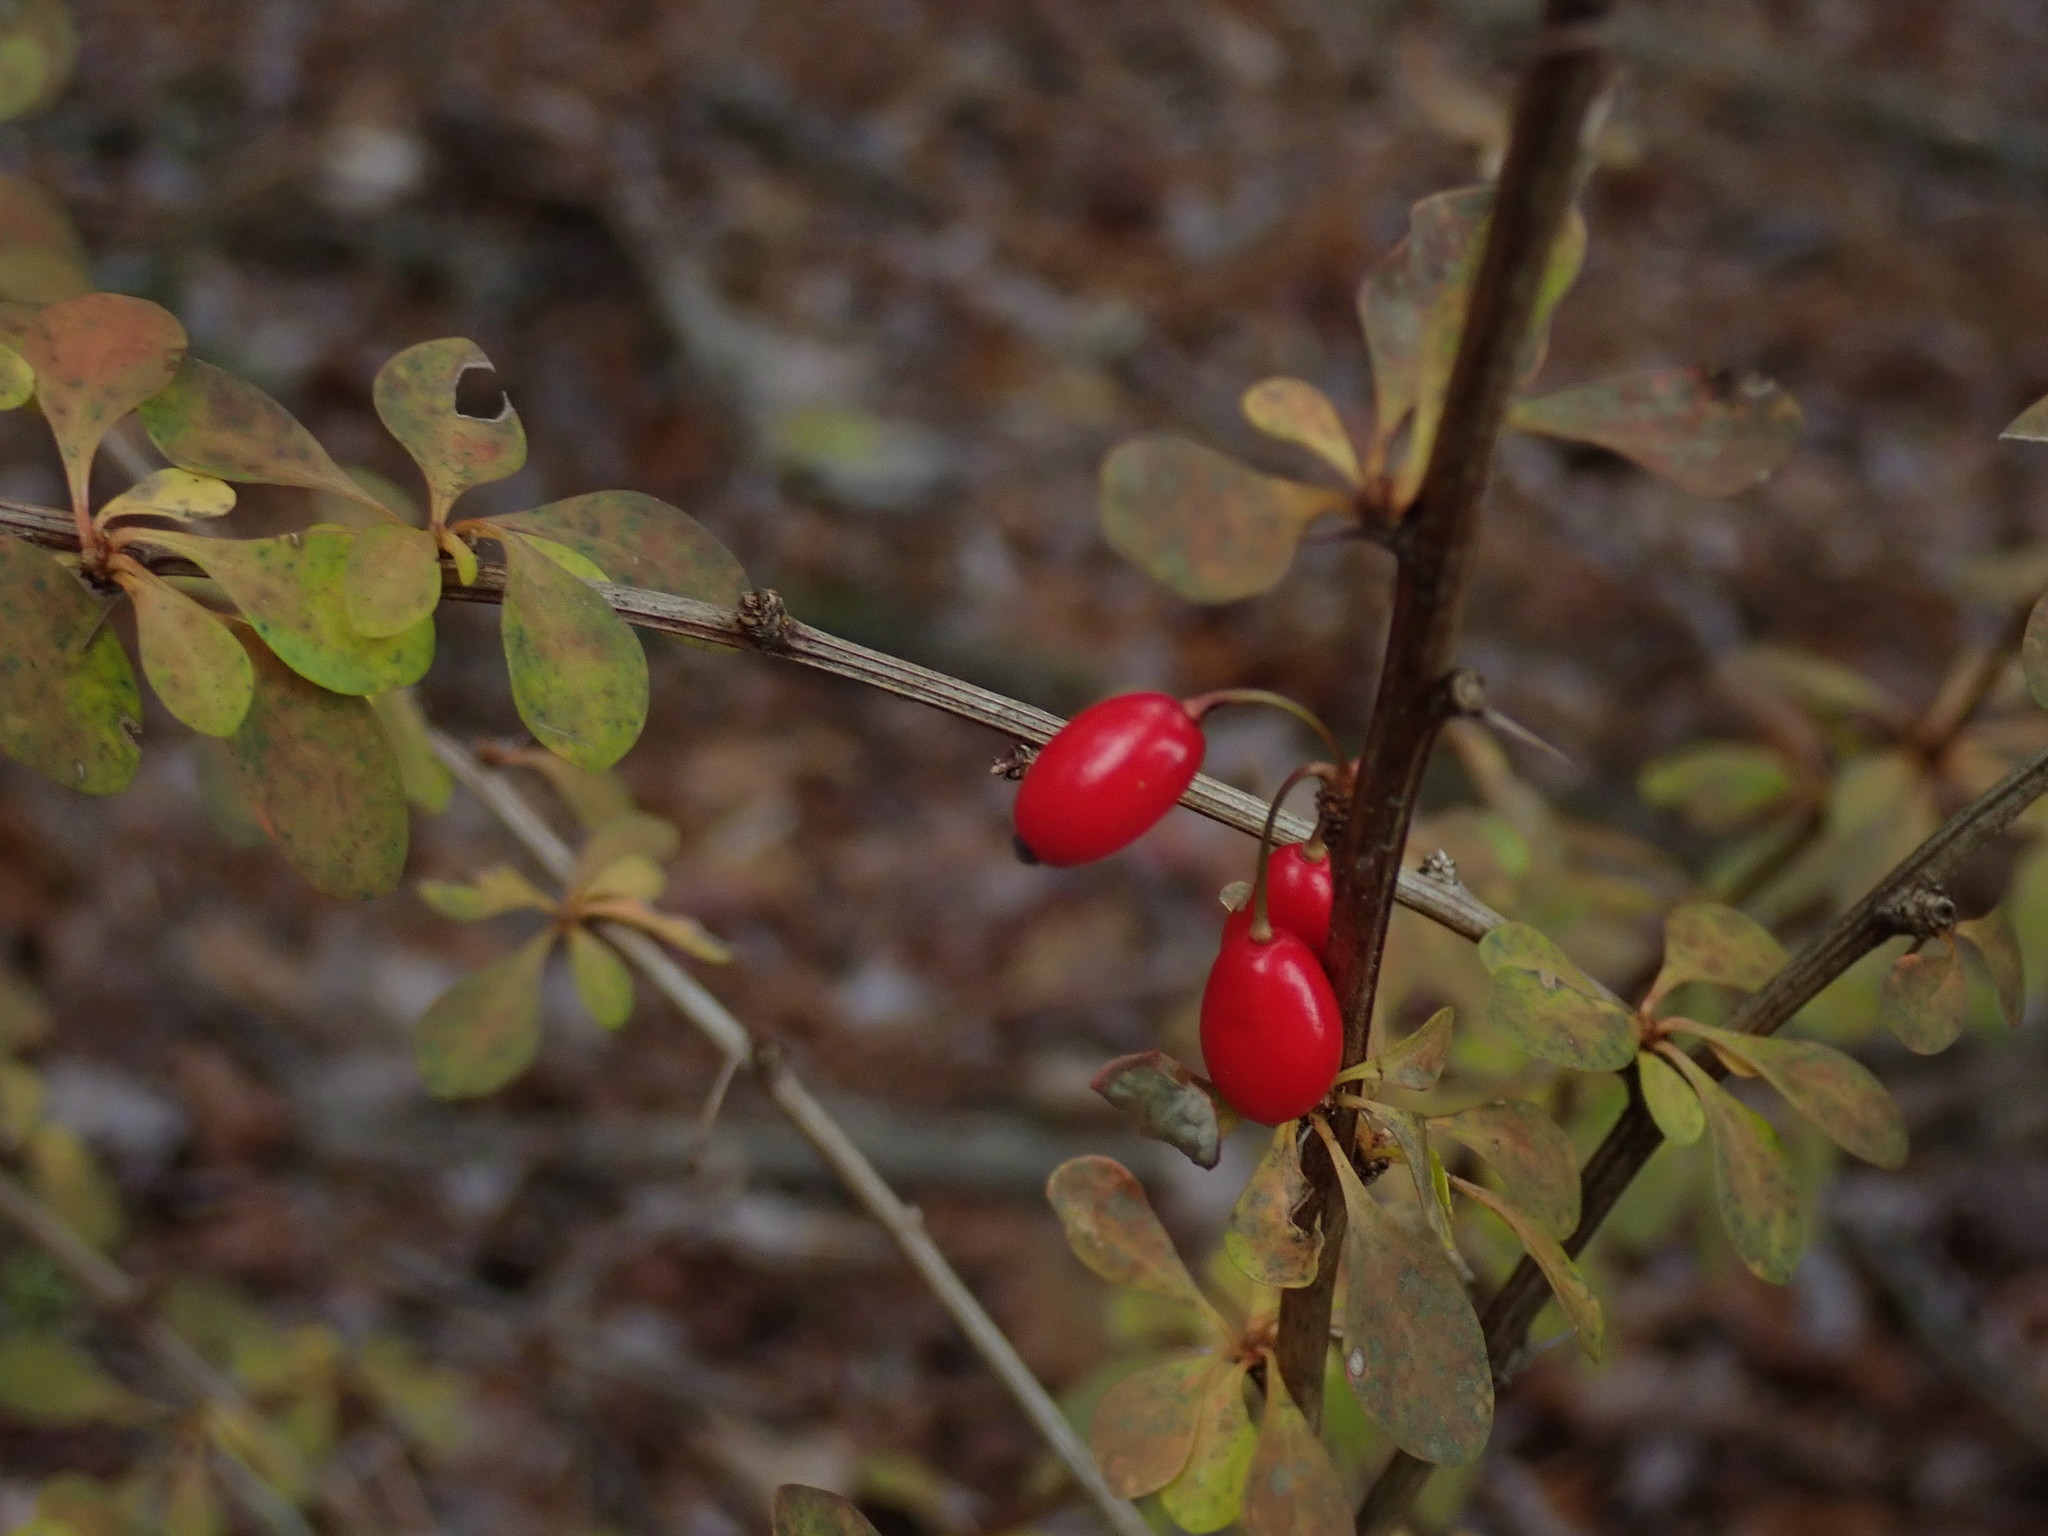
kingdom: Plantae
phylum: Tracheophyta
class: Magnoliopsida
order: Ranunculales
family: Berberidaceae
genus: Berberis
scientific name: Berberis thunbergii
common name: Japanese barberry
